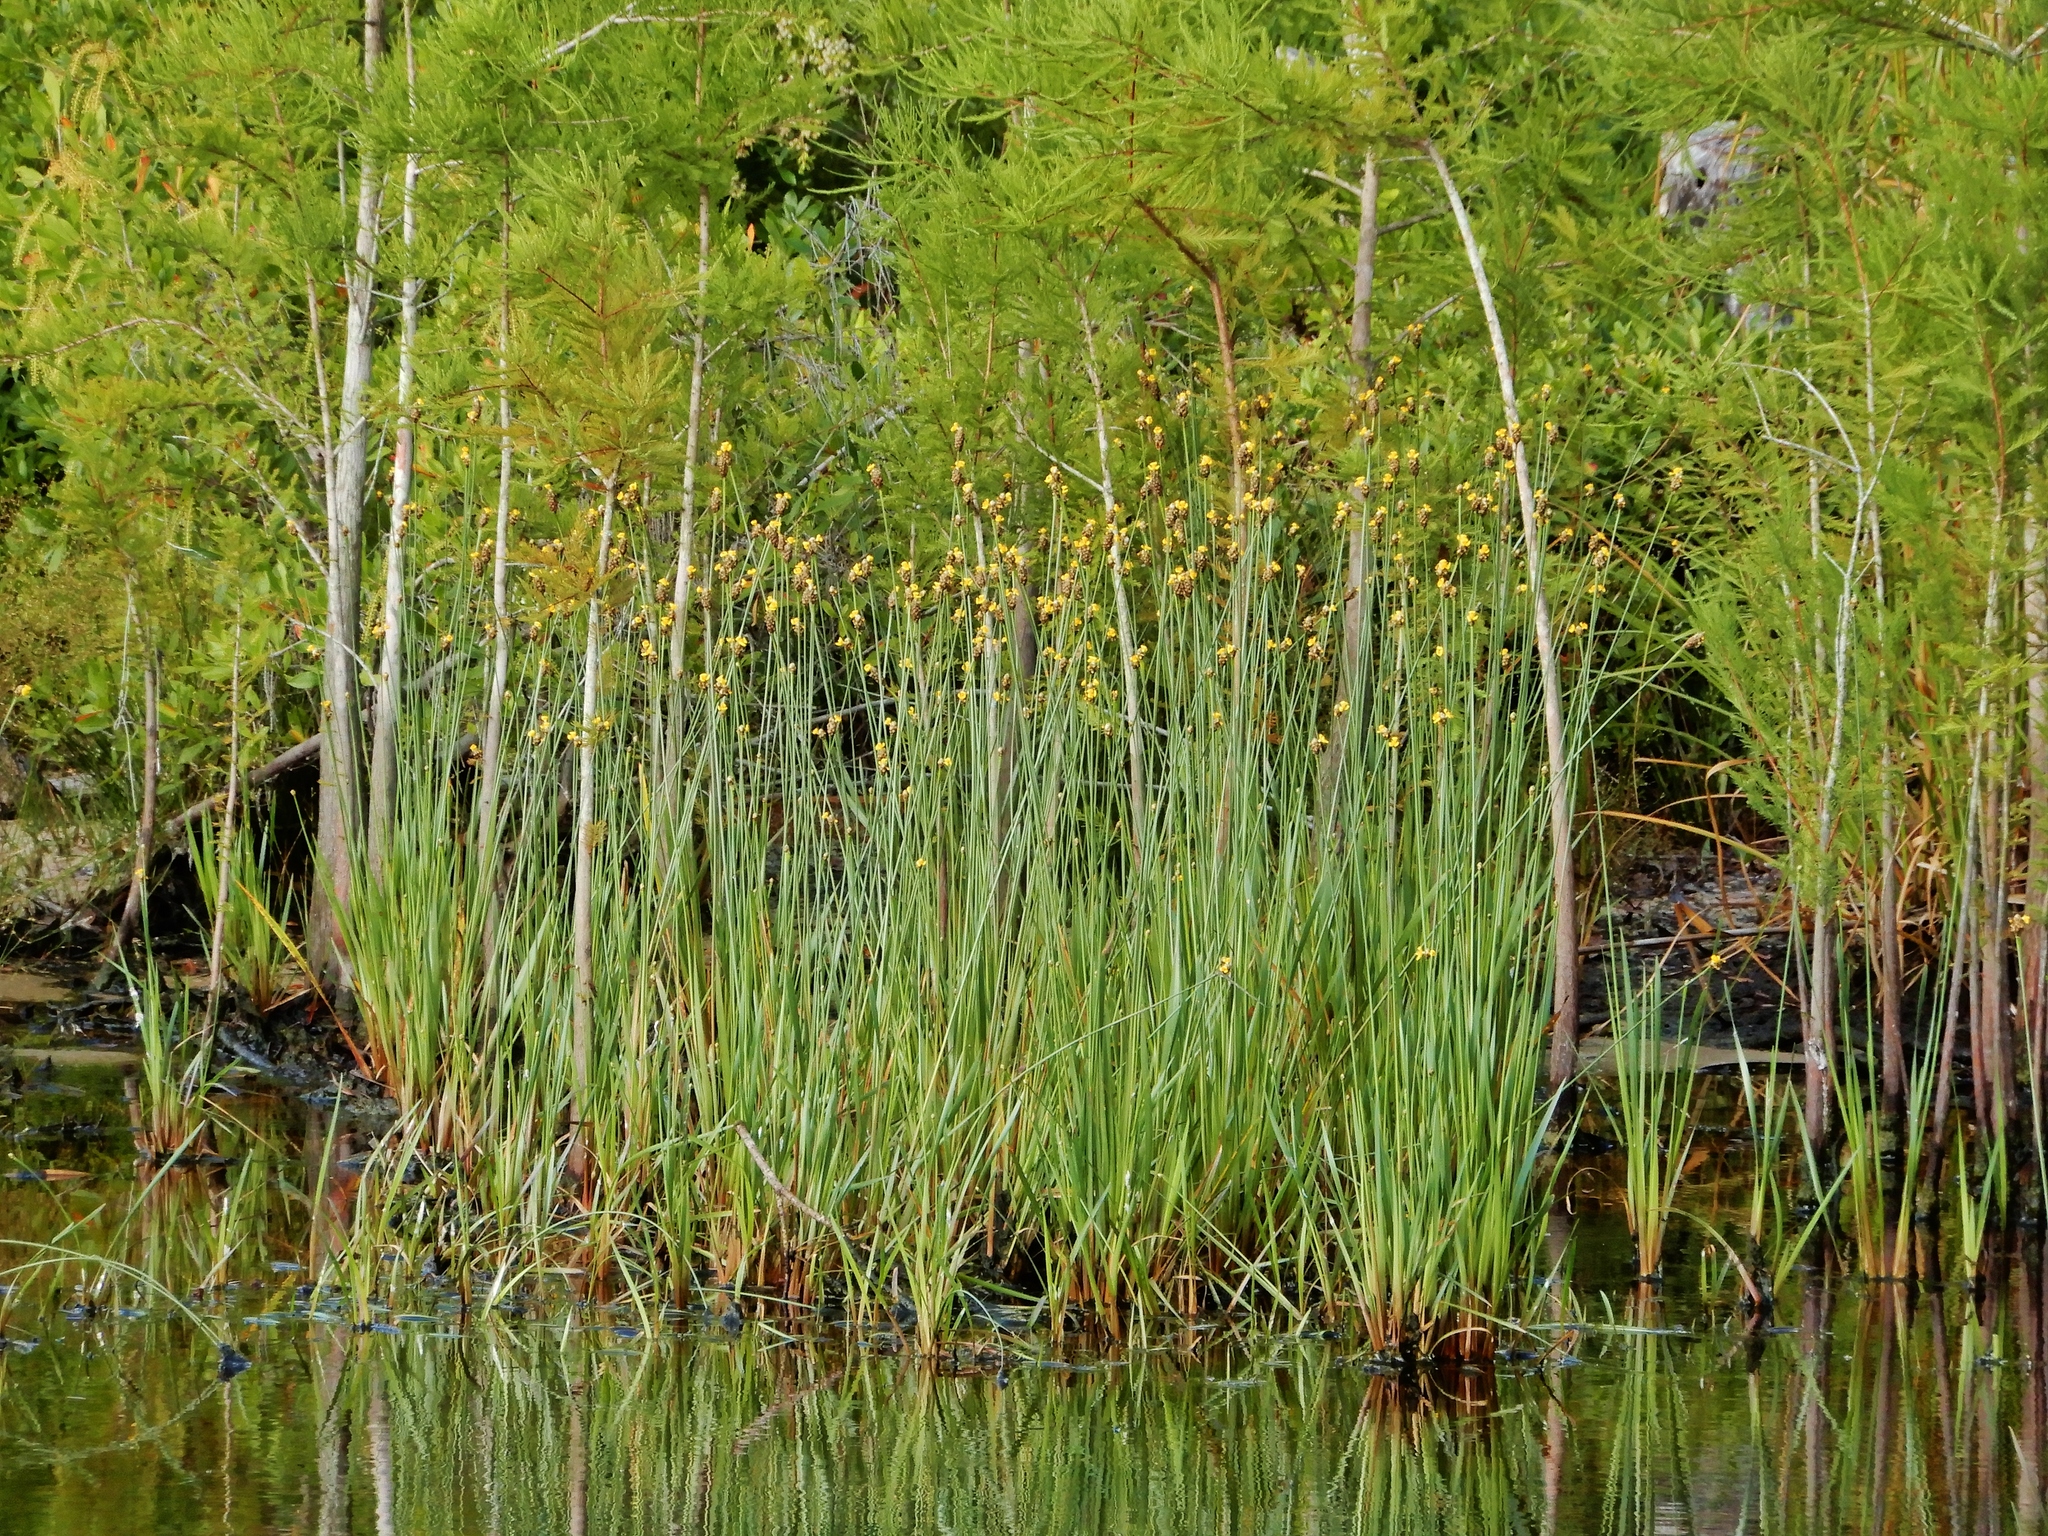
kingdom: Plantae
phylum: Tracheophyta
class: Liliopsida
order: Poales
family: Xyridaceae
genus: Xyris
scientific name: Xyris fimbriata
